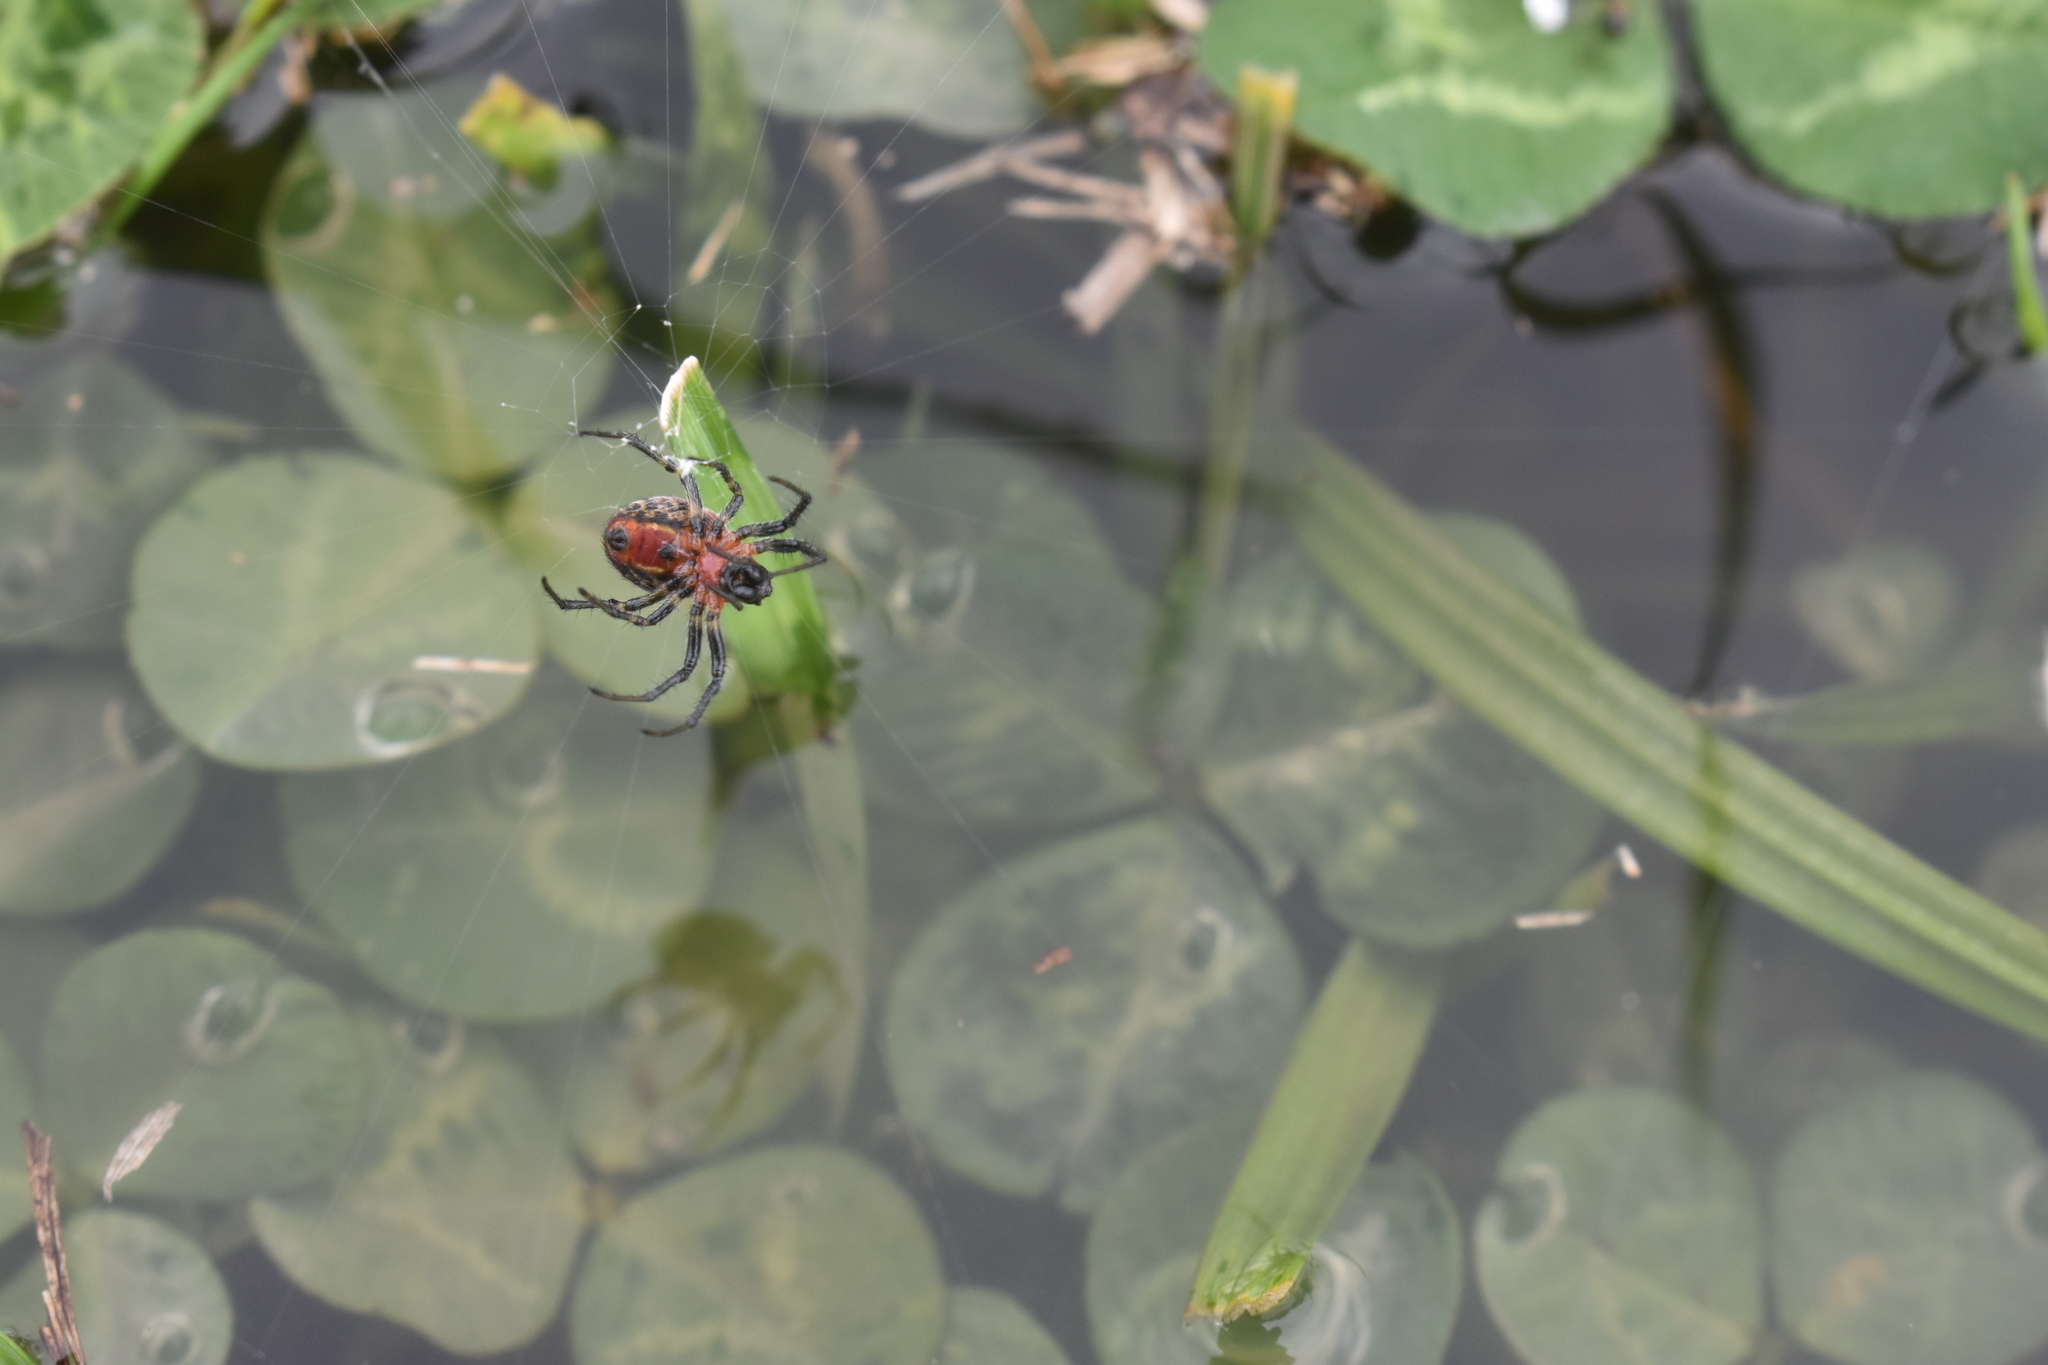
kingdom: Animalia
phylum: Arthropoda
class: Arachnida
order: Araneae
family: Araneidae
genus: Alpaida
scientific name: Alpaida versicolor
